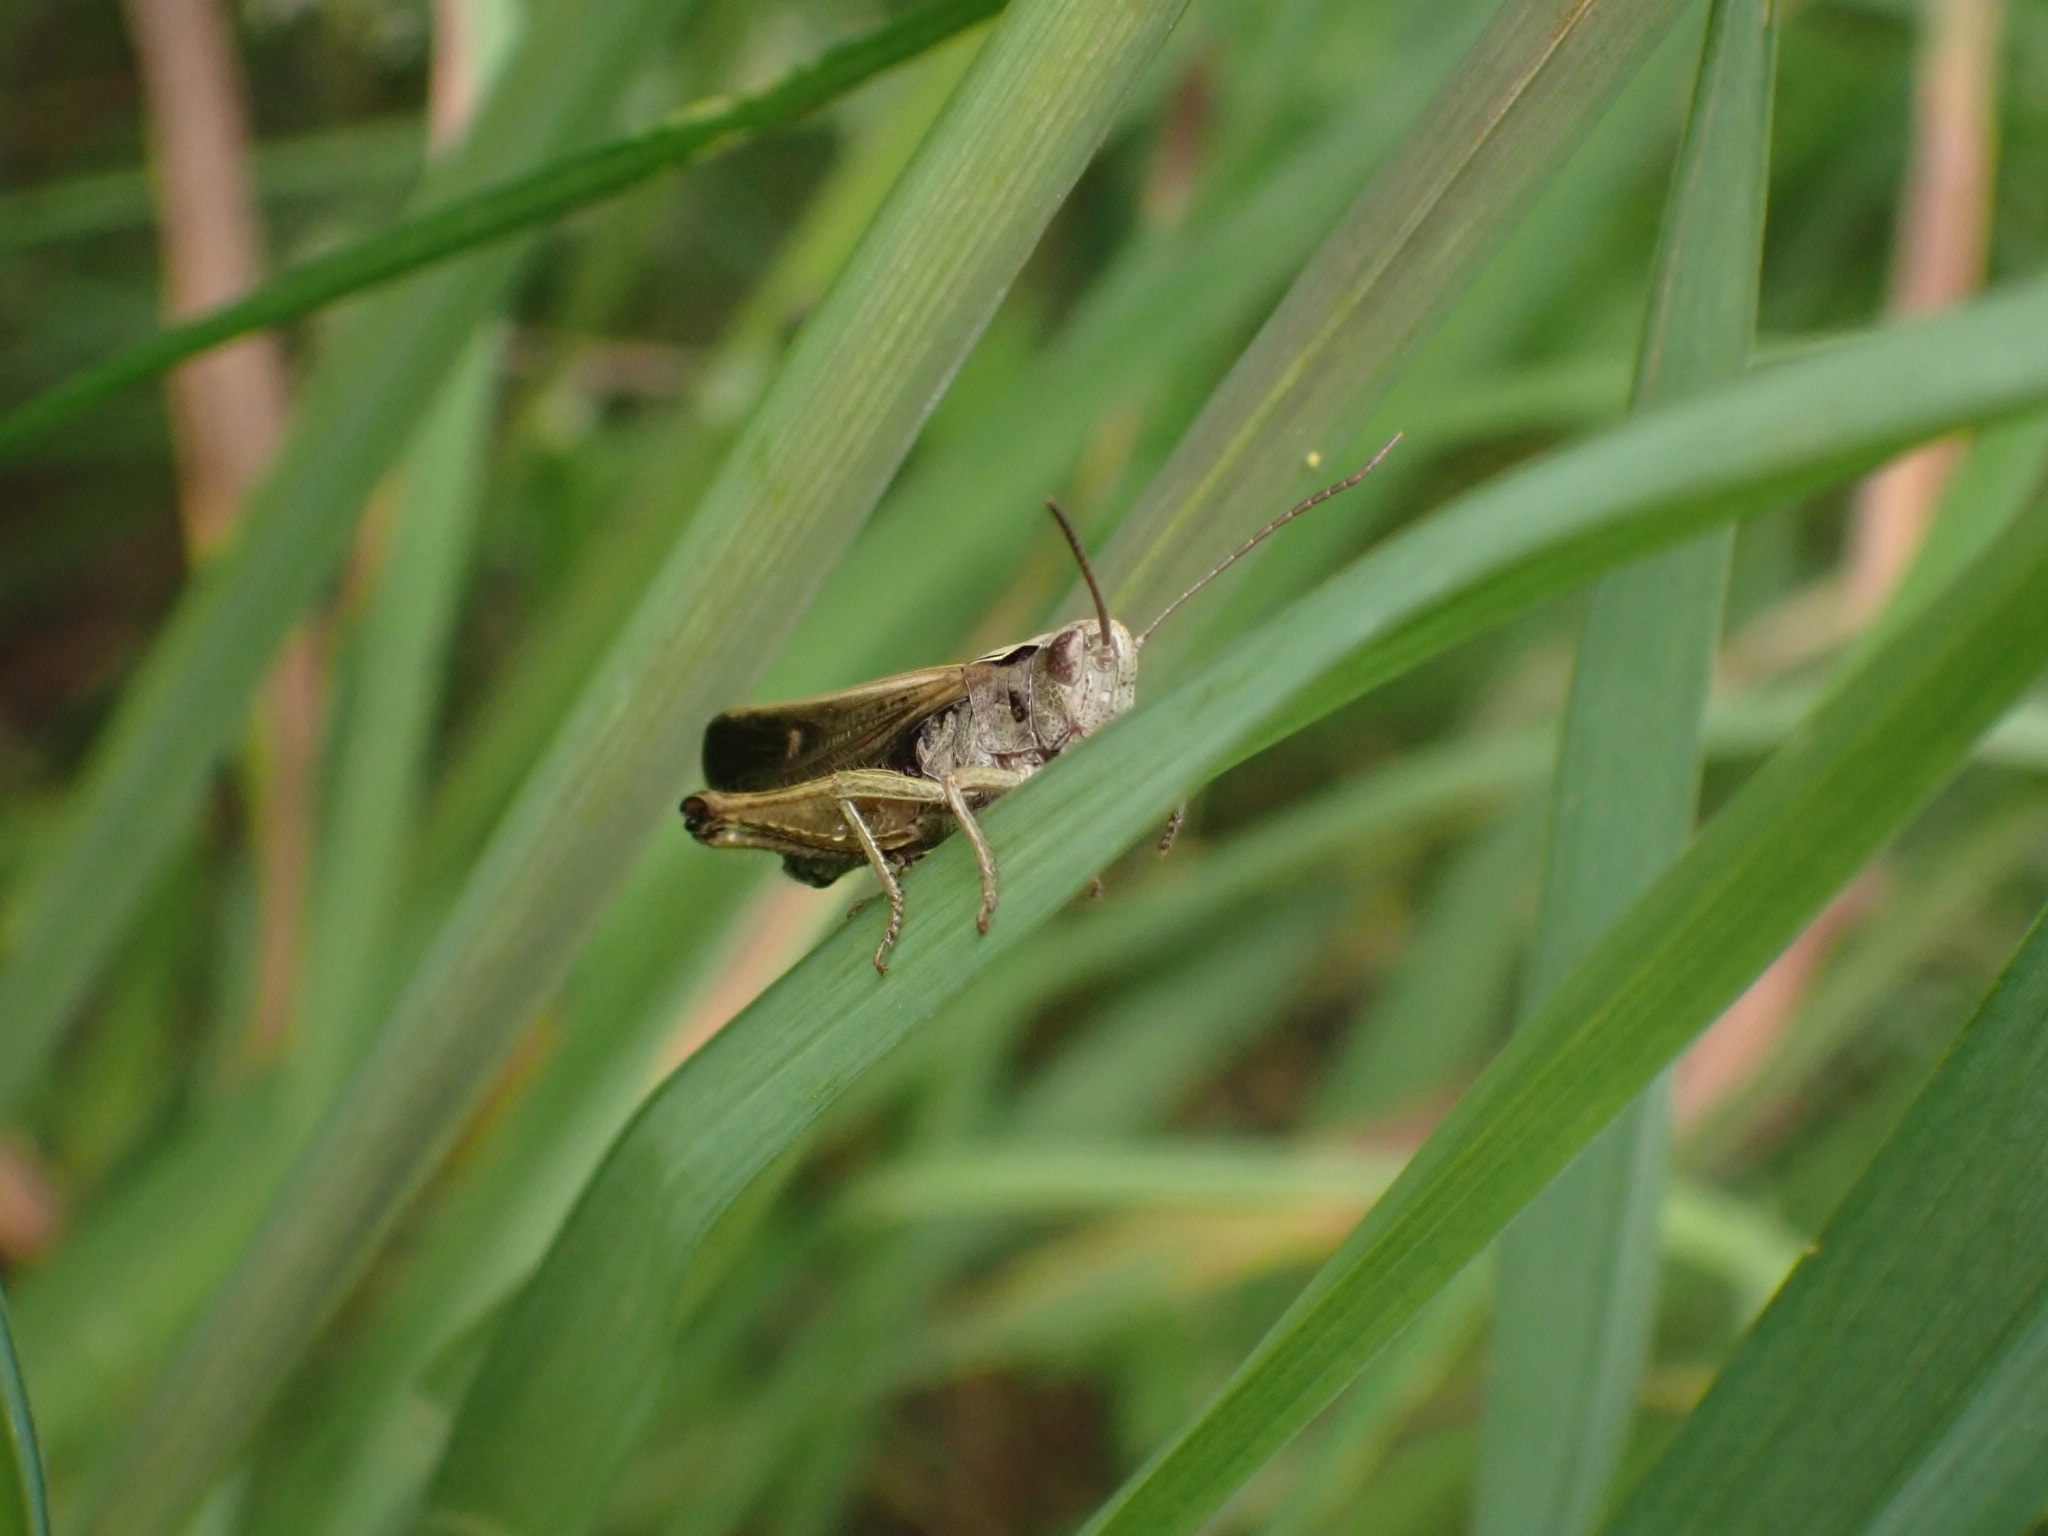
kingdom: Animalia
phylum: Arthropoda
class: Insecta
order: Orthoptera
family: Acrididae
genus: Omocestus
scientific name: Omocestus viridulus
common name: Common green grasshopper
